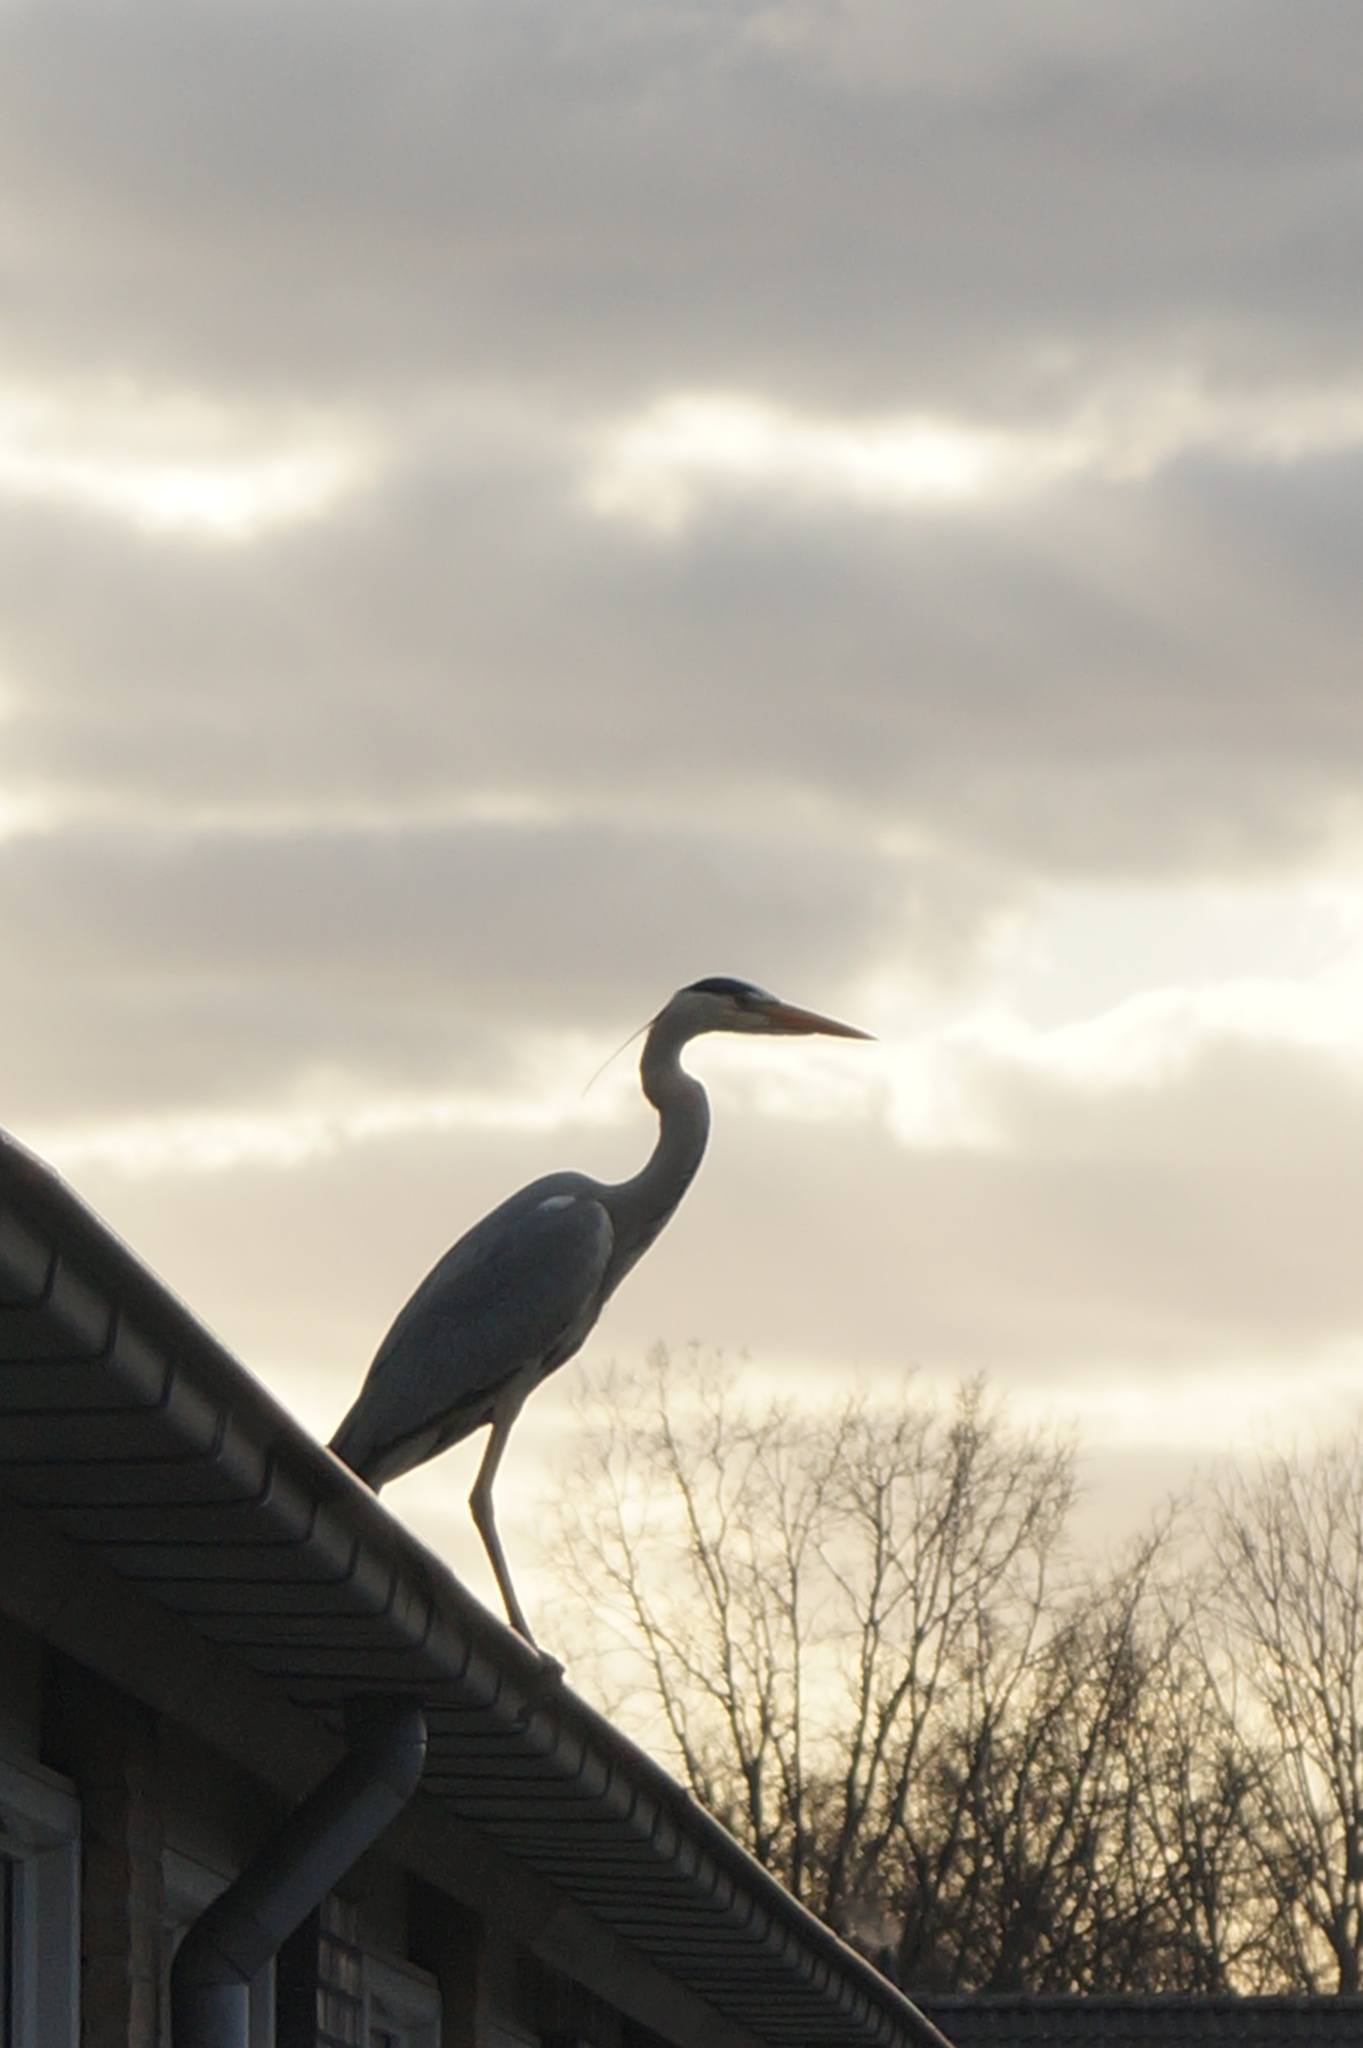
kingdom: Animalia
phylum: Chordata
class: Aves
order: Pelecaniformes
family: Ardeidae
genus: Ardea
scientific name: Ardea cinerea
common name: Grey heron
